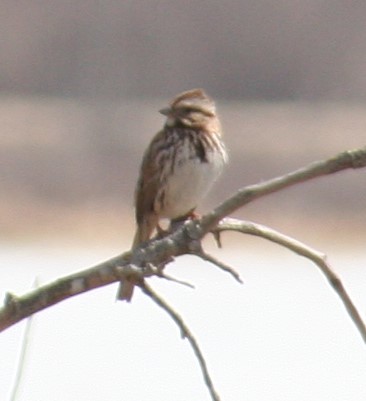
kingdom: Animalia
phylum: Chordata
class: Aves
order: Passeriformes
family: Passerellidae
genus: Melospiza
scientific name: Melospiza melodia
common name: Song sparrow
